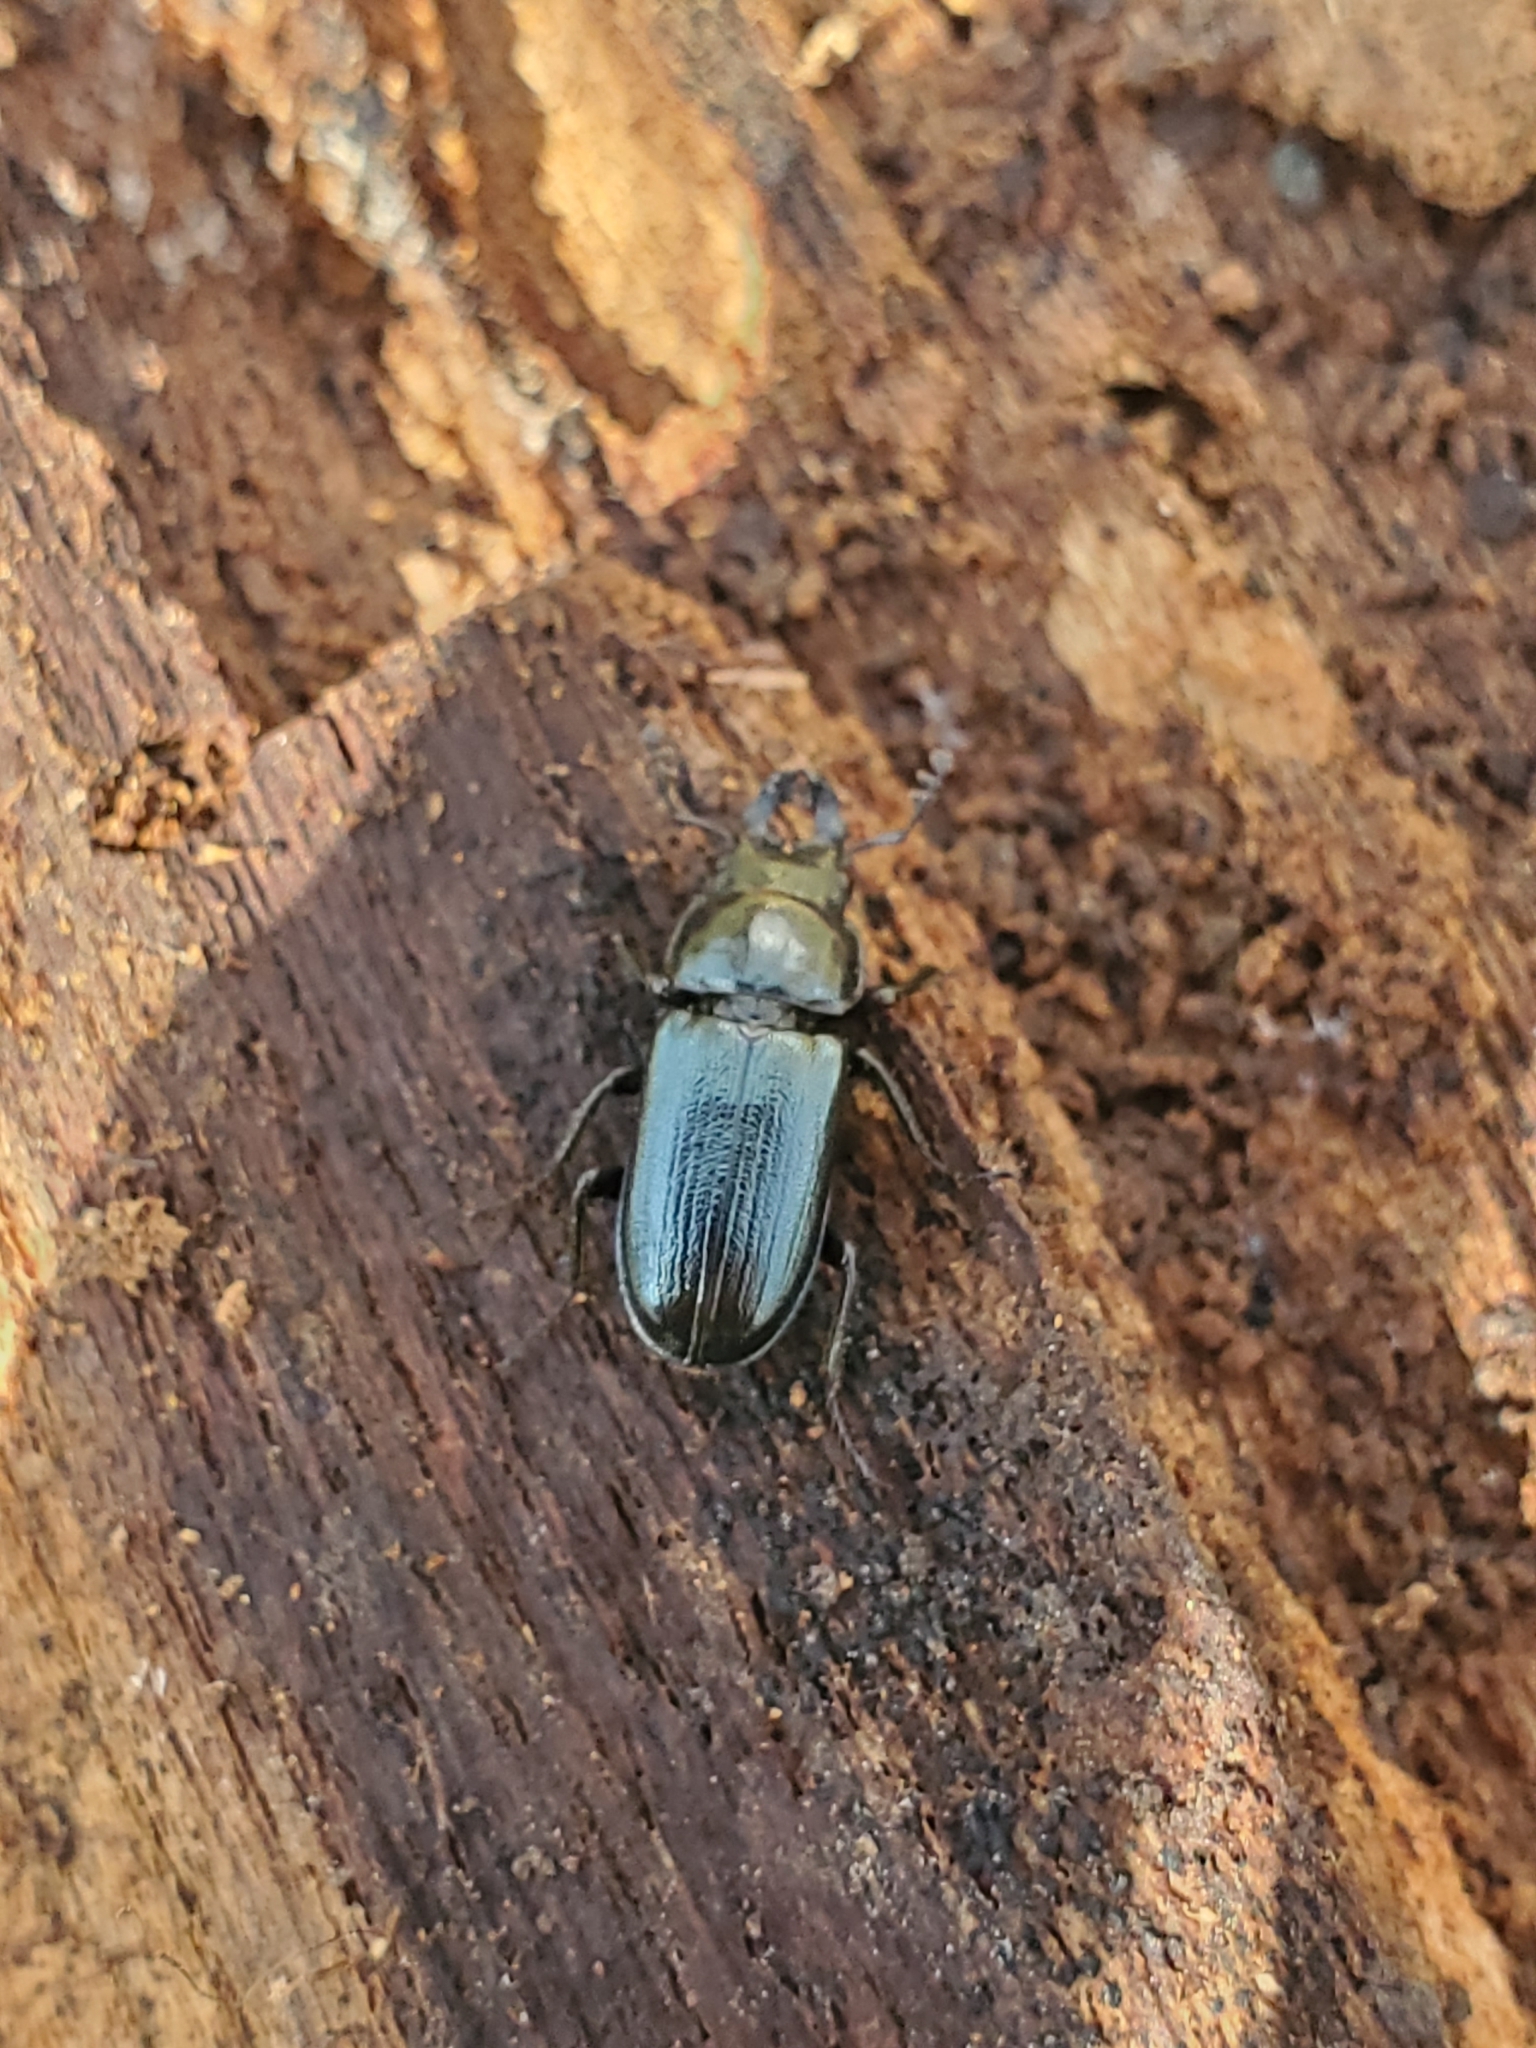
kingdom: Animalia
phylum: Arthropoda
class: Insecta
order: Coleoptera
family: Lucanidae
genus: Platycerus
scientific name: Platycerus quercus
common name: Oak stag beetle
